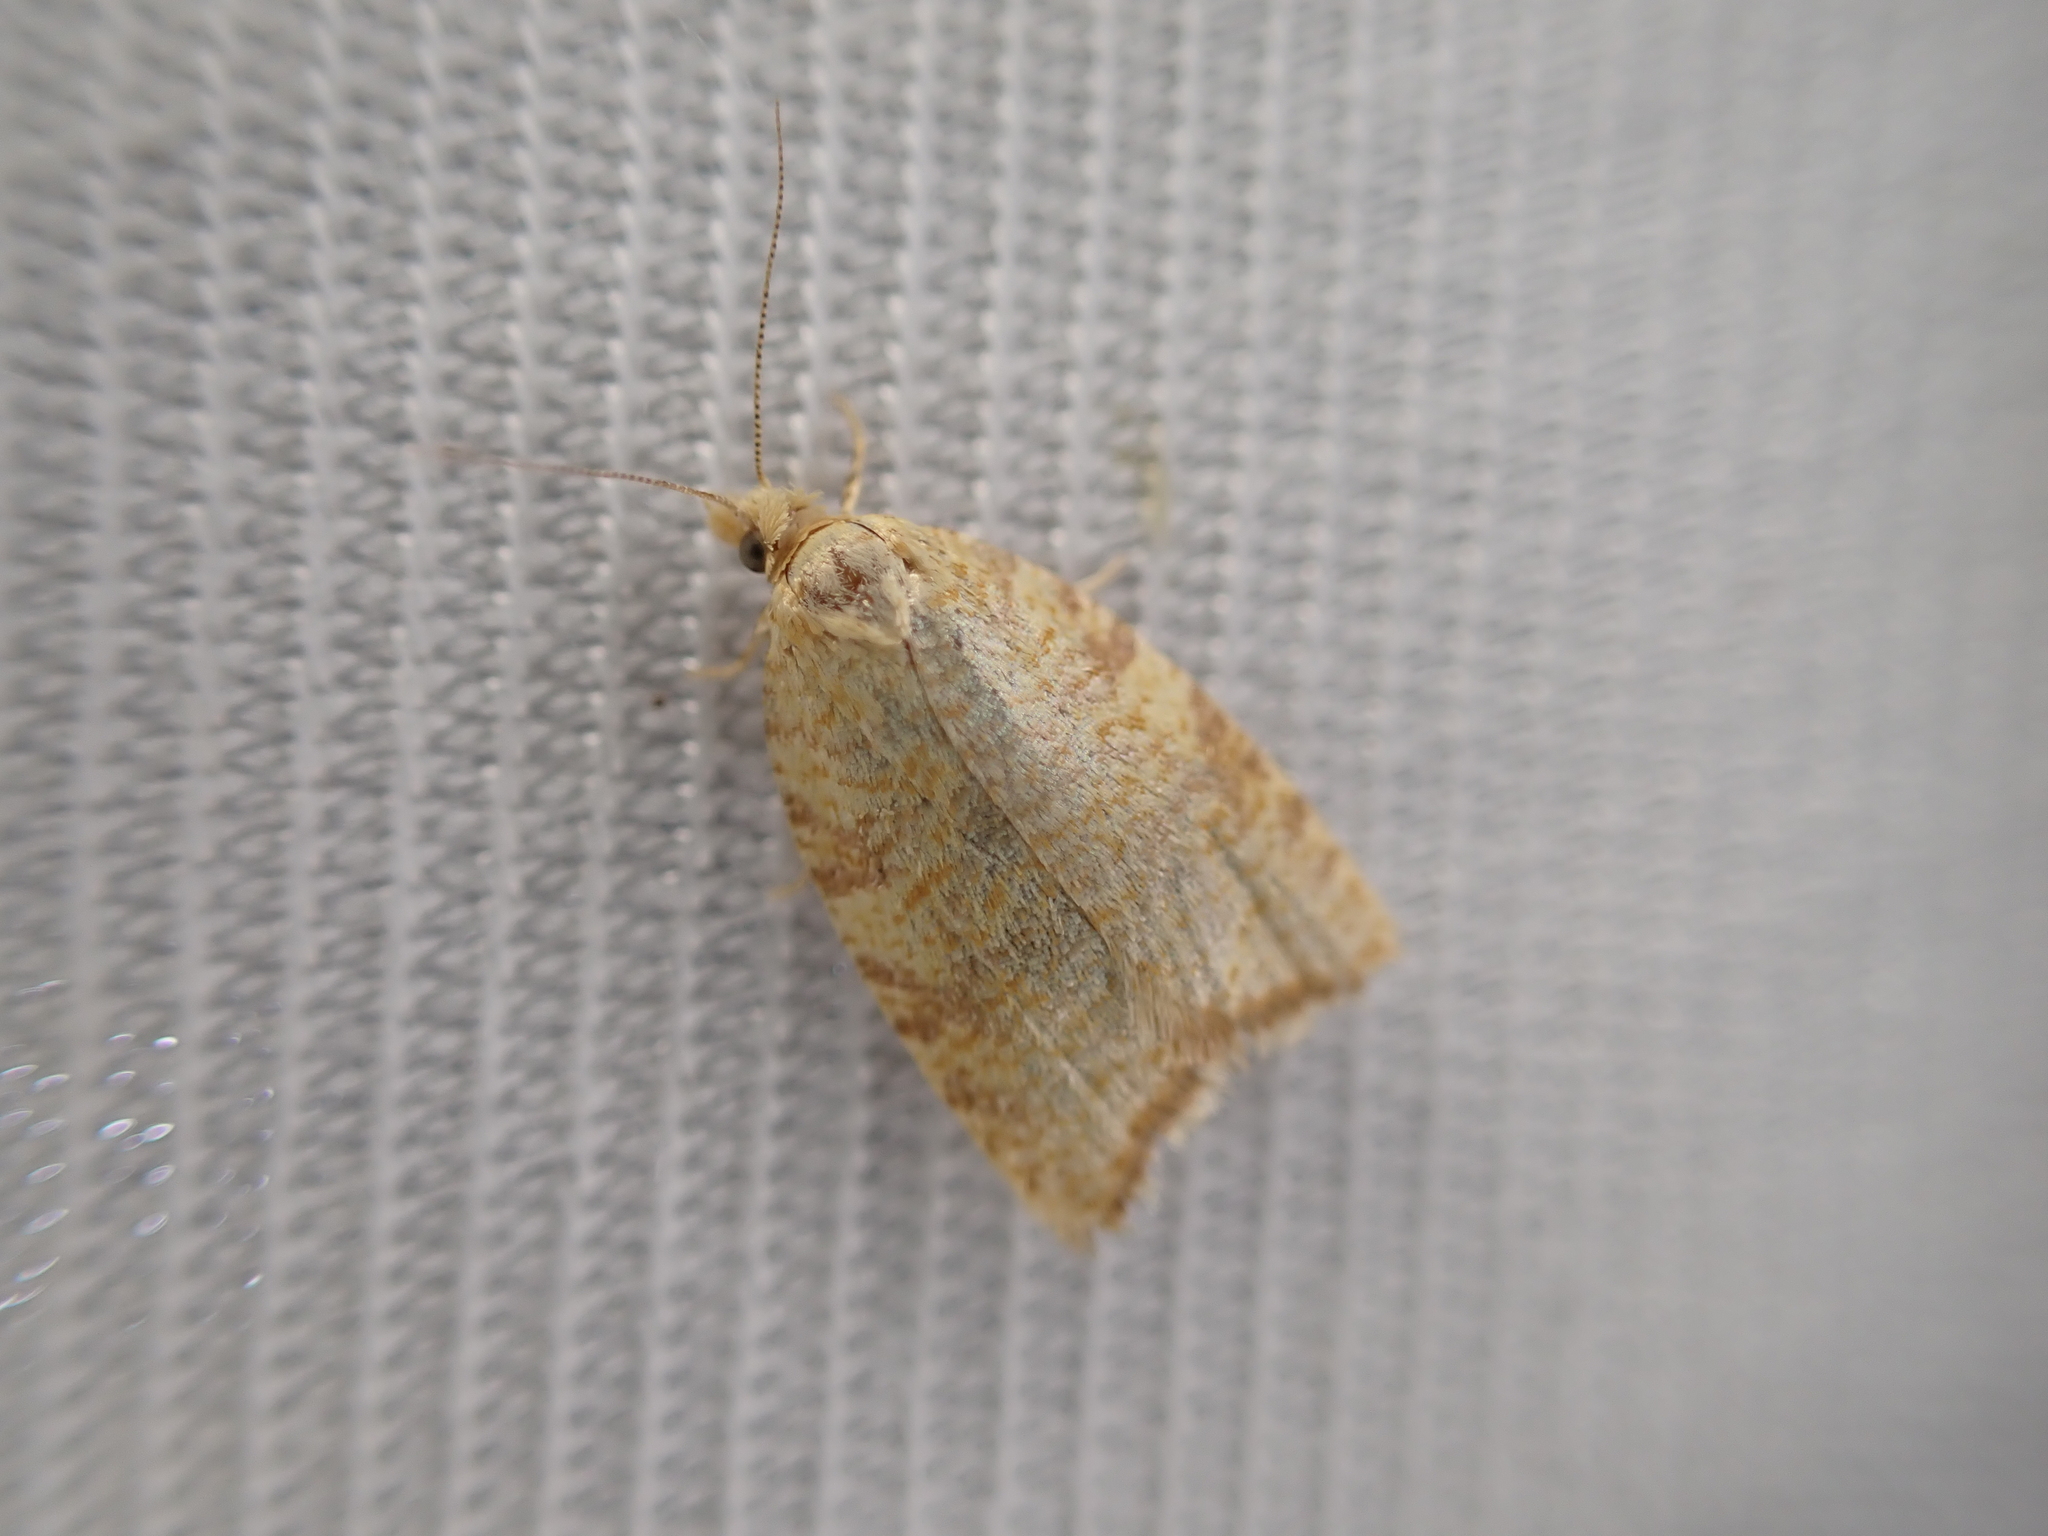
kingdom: Animalia
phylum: Arthropoda
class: Insecta
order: Lepidoptera
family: Tortricidae
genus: Aleimma
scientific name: Aleimma loeflingiana
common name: Yellow oak button
